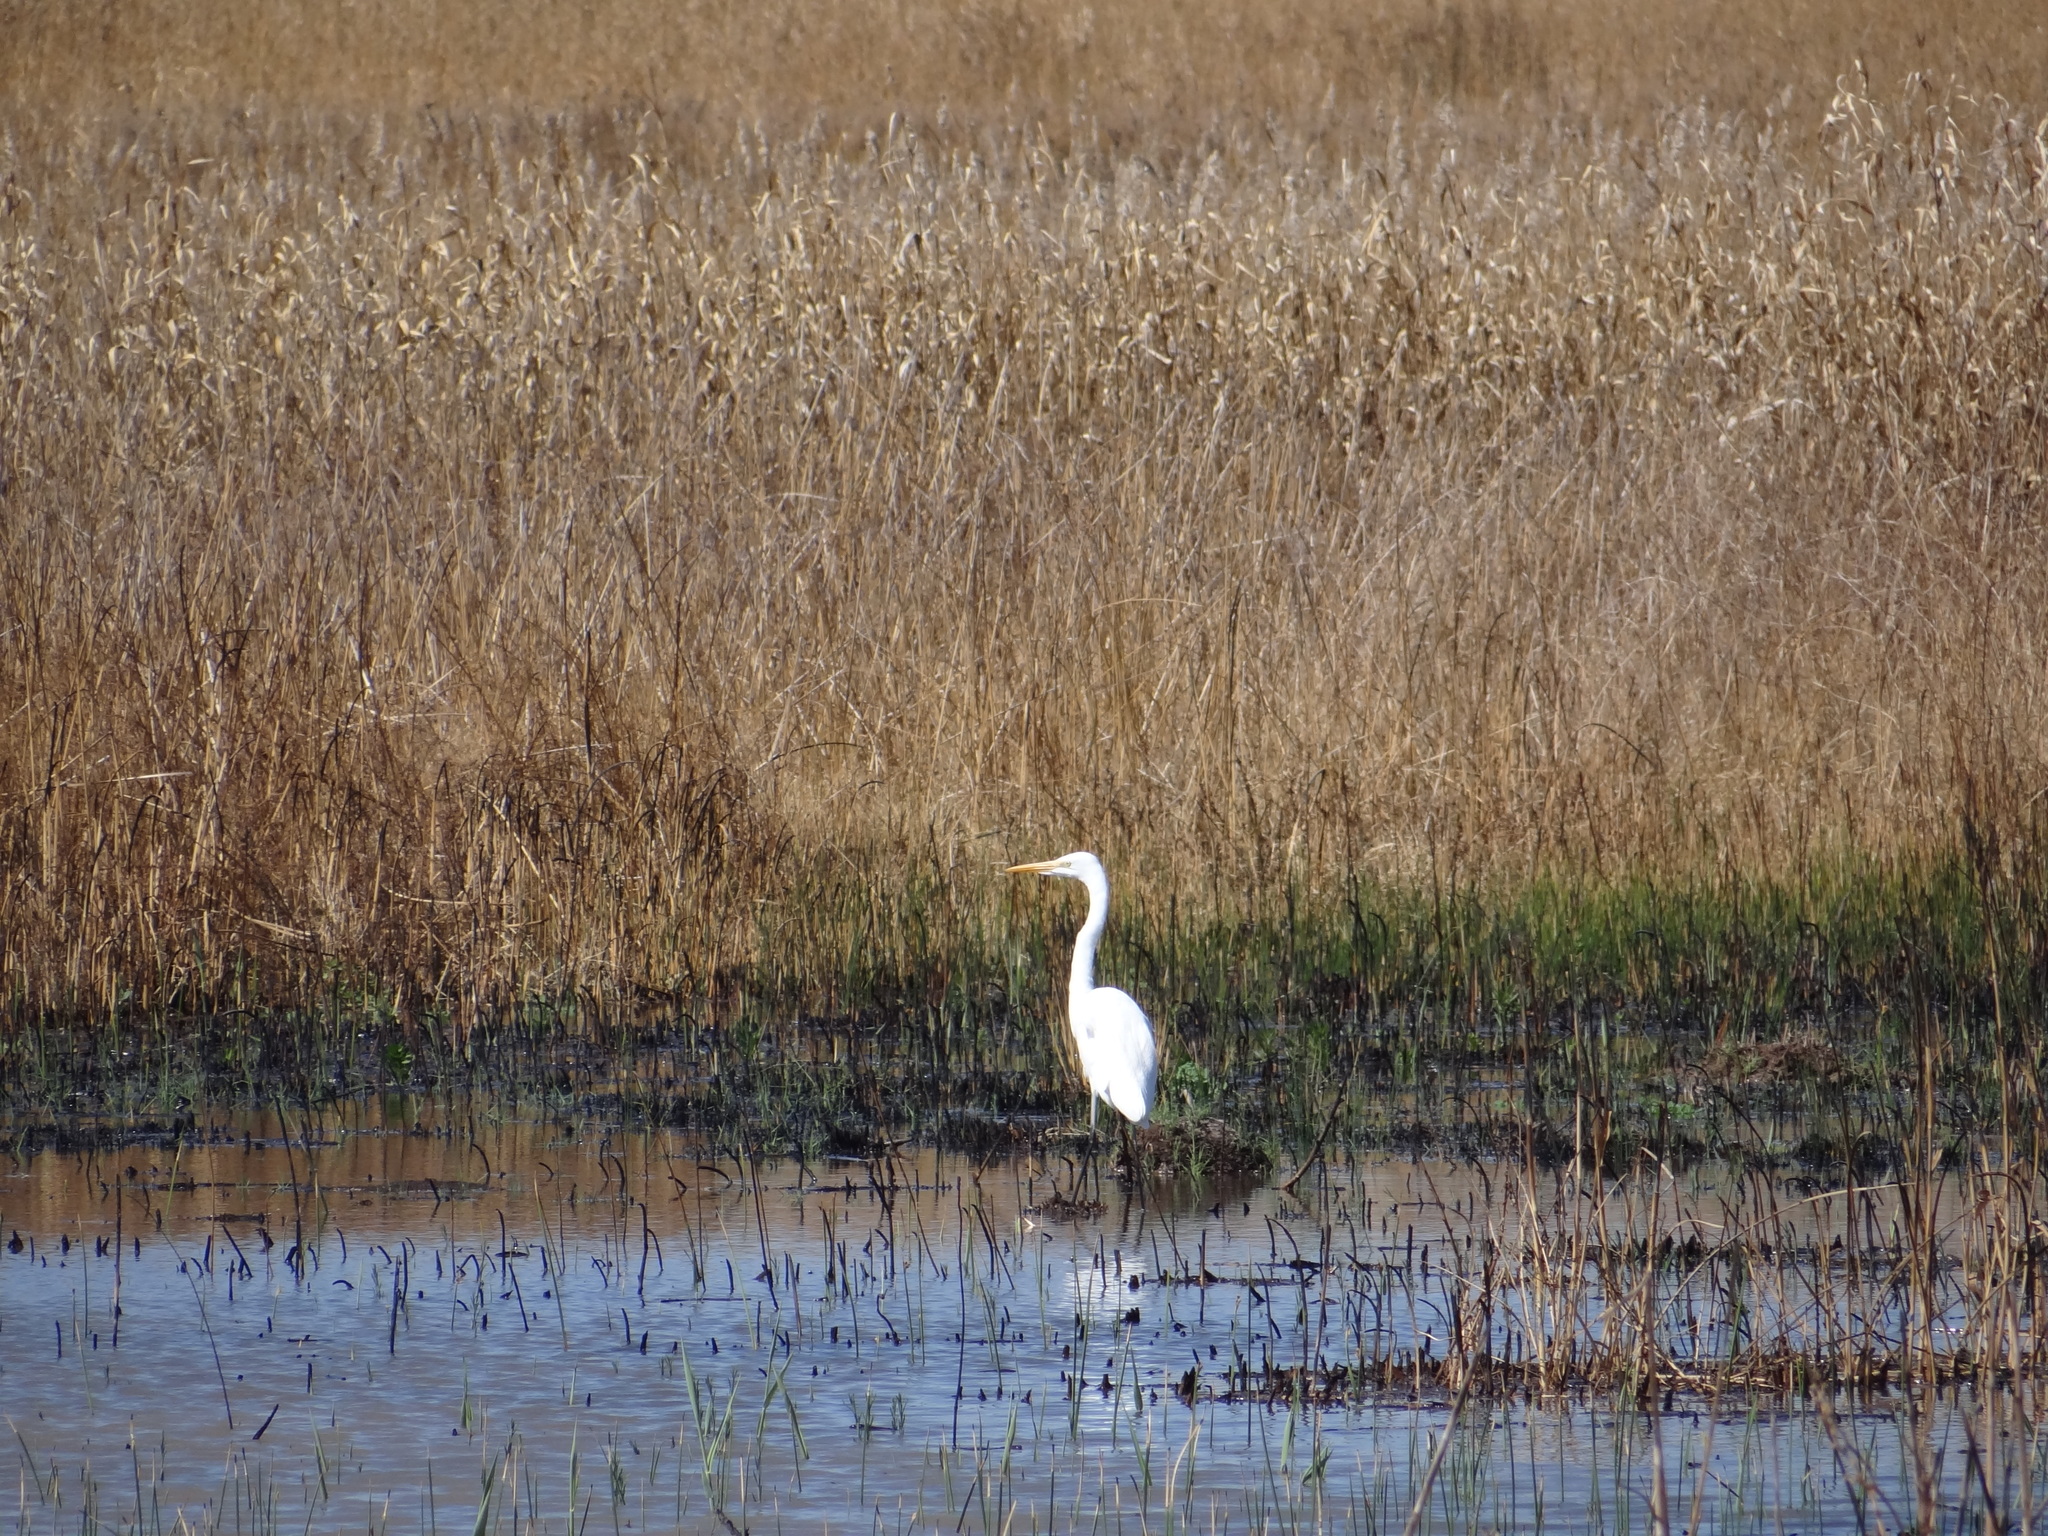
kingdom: Animalia
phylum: Chordata
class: Aves
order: Pelecaniformes
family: Ardeidae
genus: Ardea
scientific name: Ardea alba
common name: Great egret
